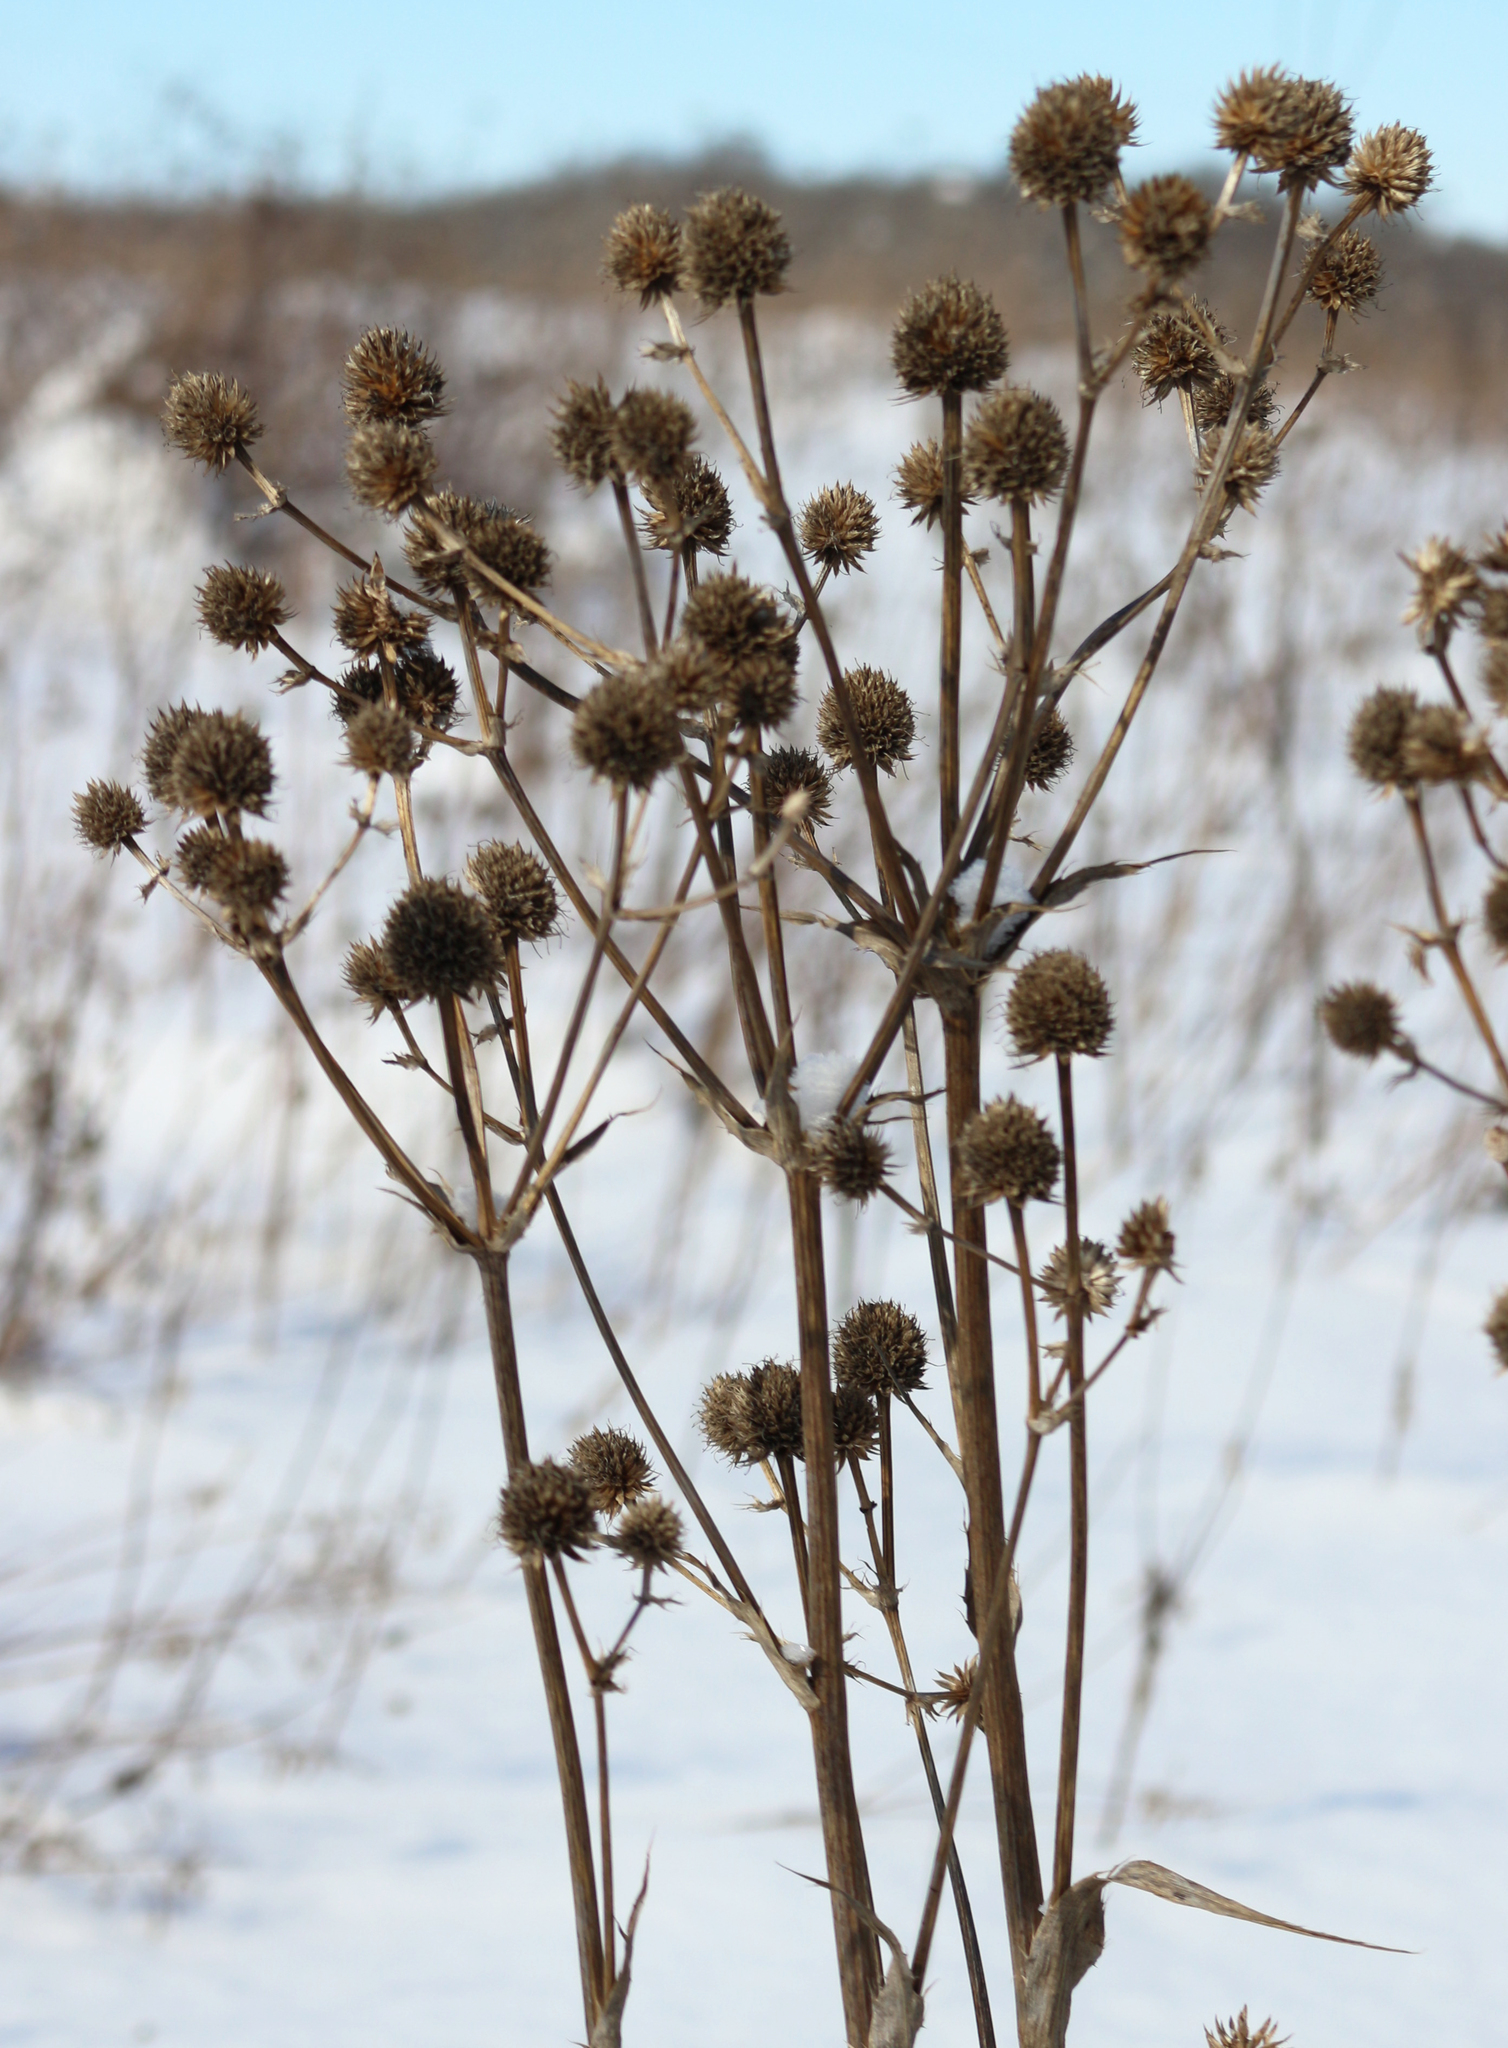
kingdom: Plantae
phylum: Tracheophyta
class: Magnoliopsida
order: Apiales
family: Apiaceae
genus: Eryngium
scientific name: Eryngium yuccifolium
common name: Button eryngo
